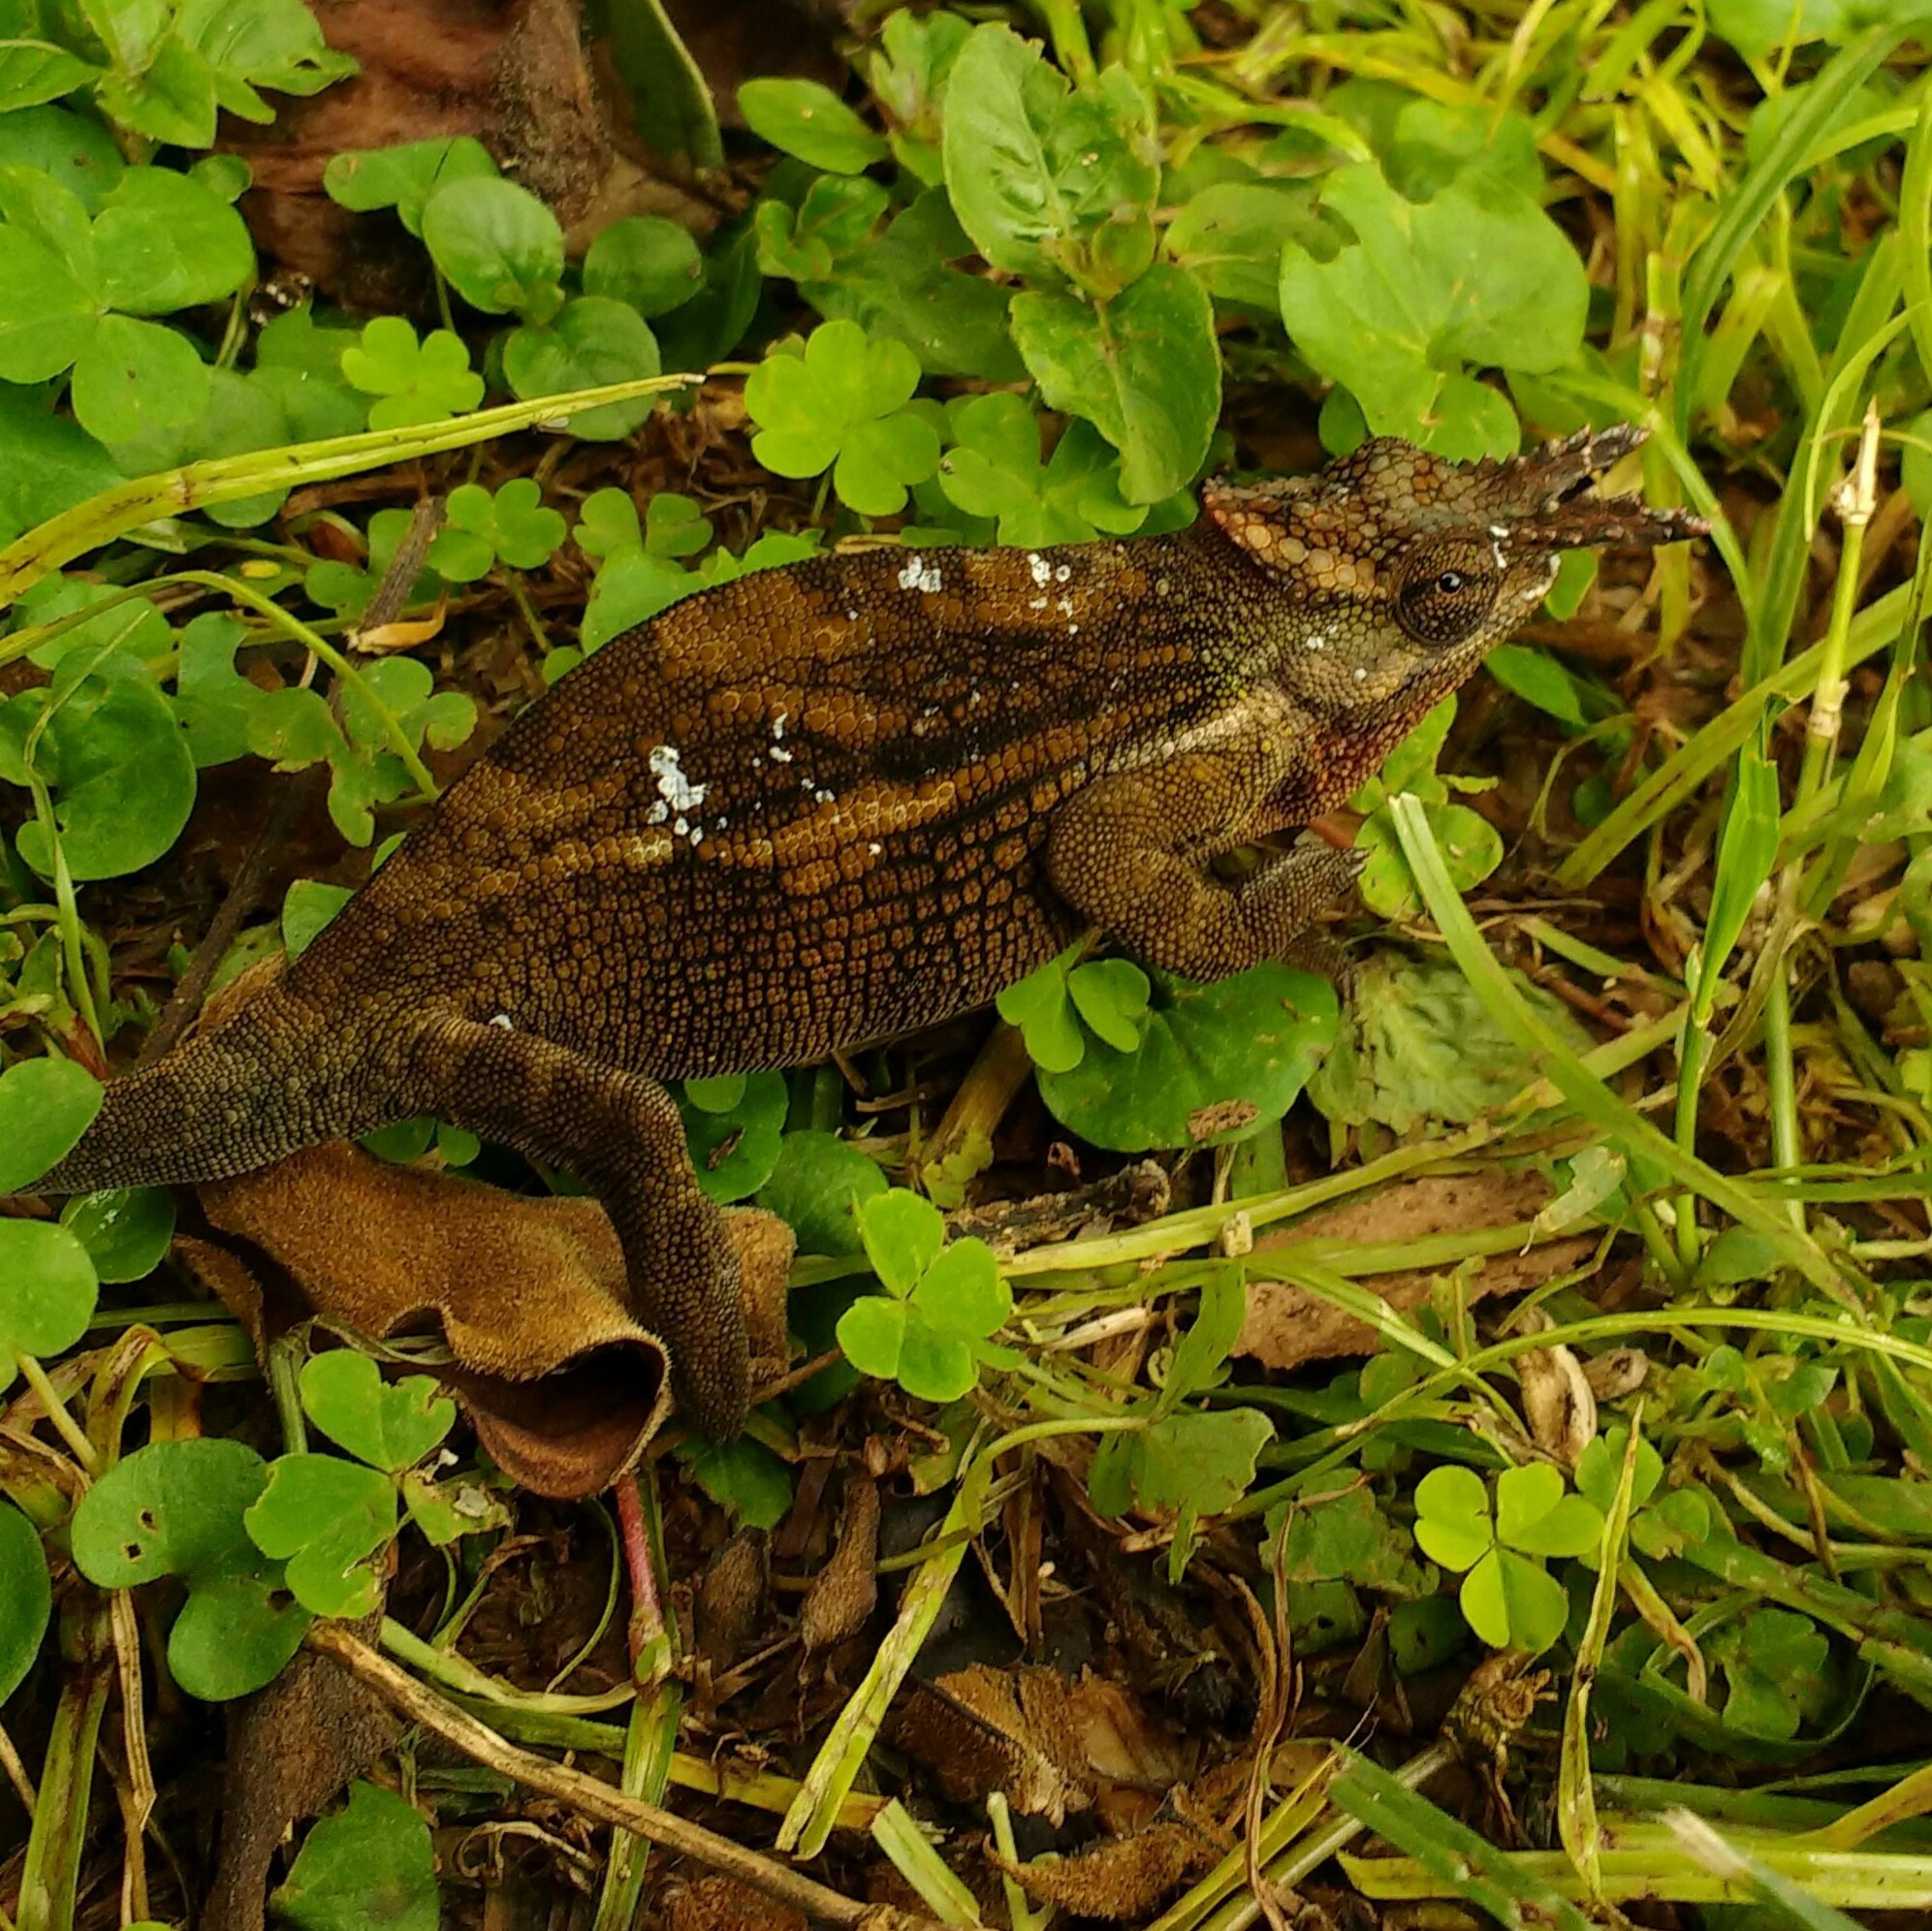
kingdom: Animalia
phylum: Chordata
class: Squamata
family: Chamaeleonidae
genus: Kinyongia
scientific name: Kinyongia tavetana
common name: Kilimanjaro blade-horned chameleon
